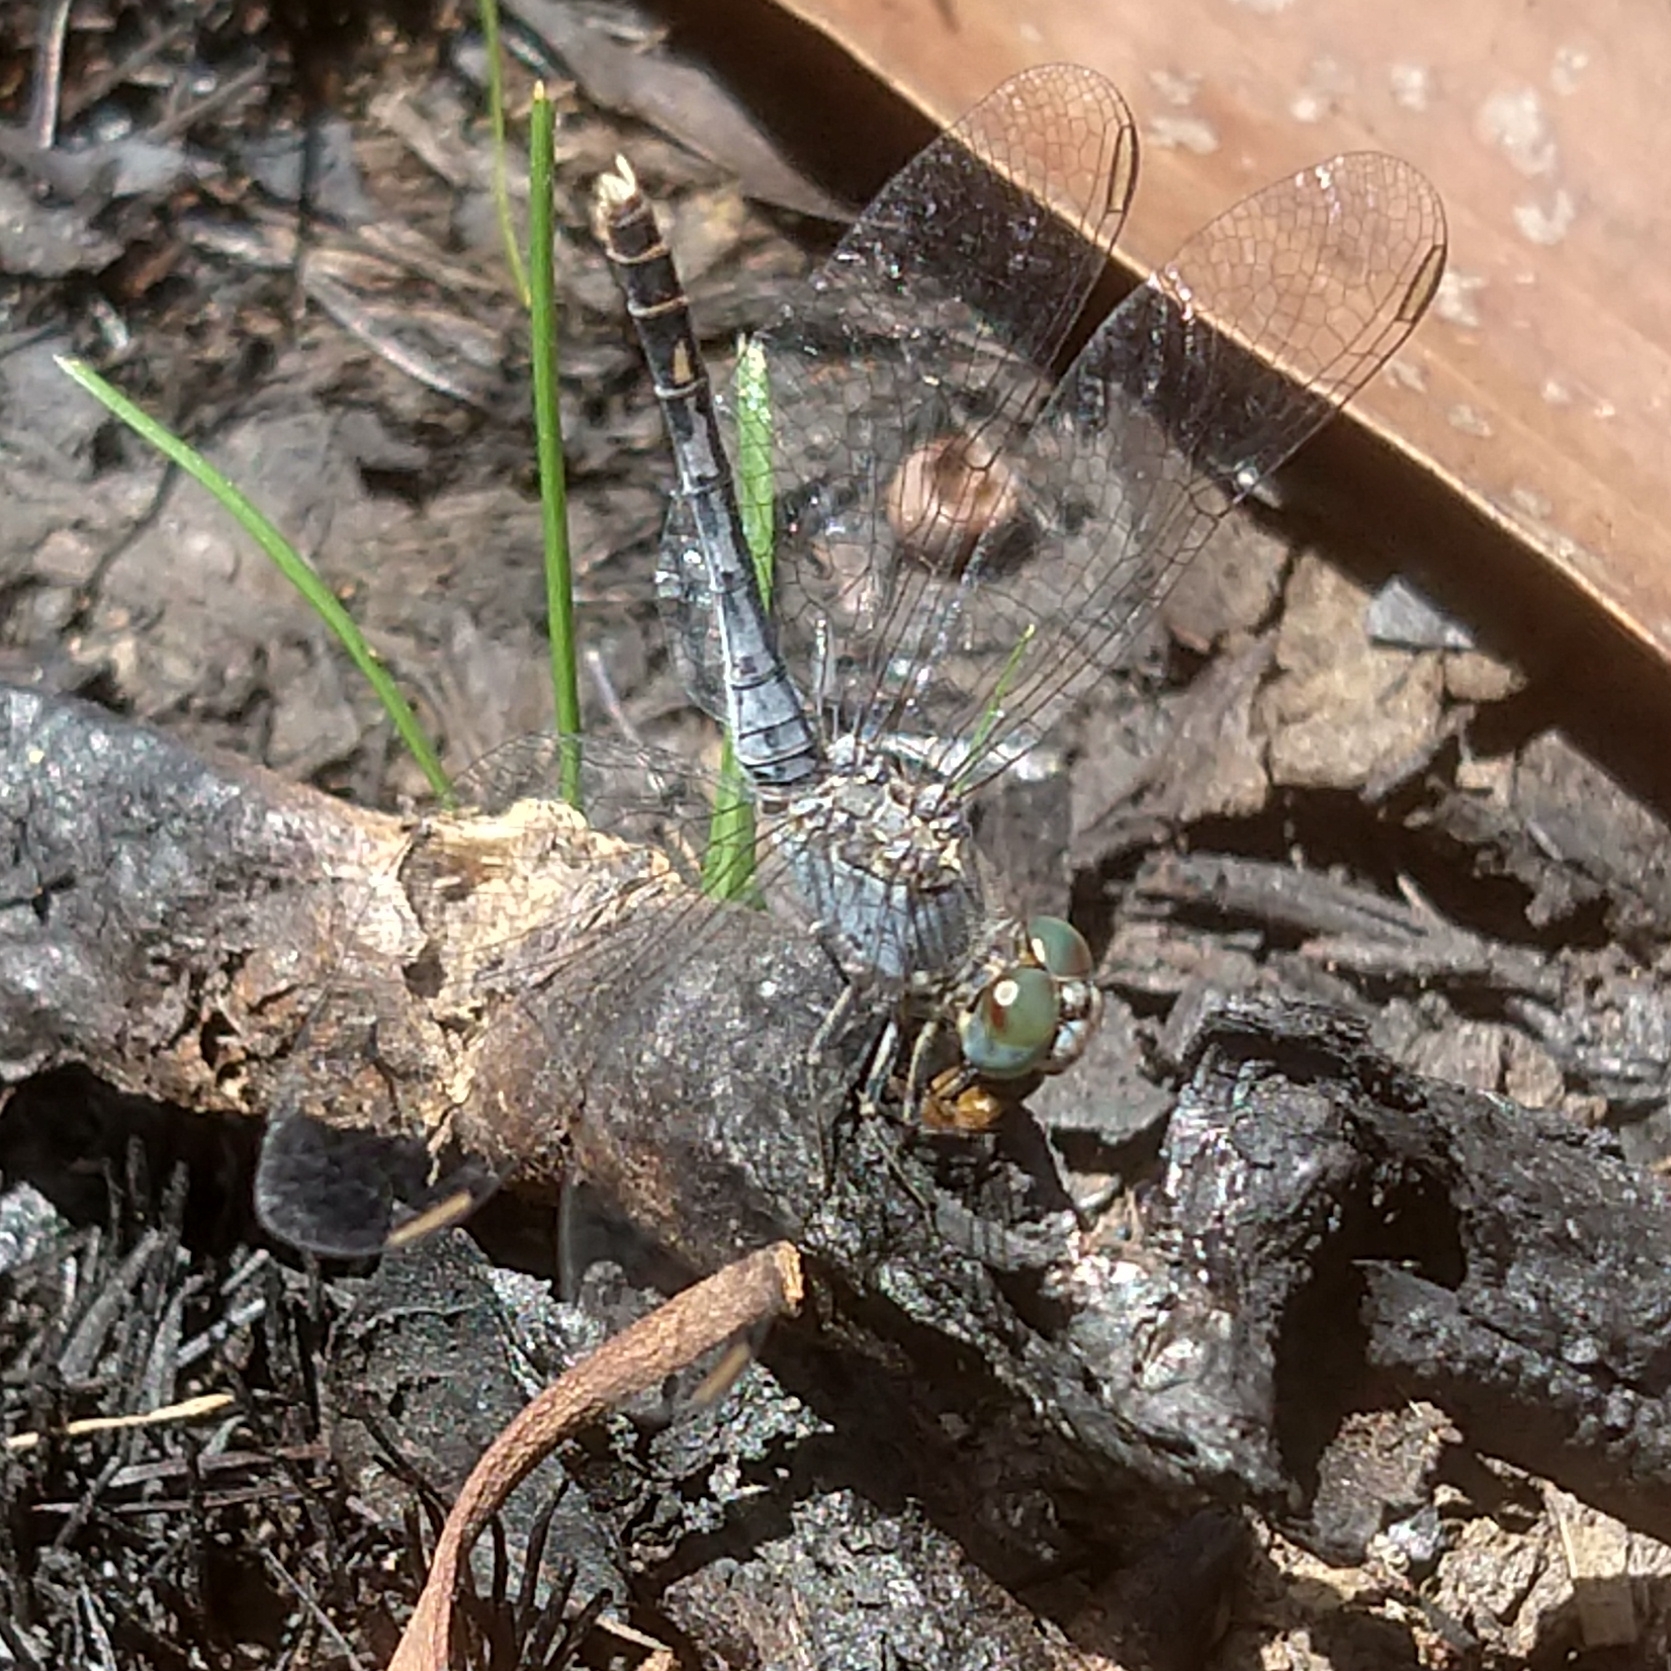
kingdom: Animalia
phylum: Arthropoda
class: Insecta
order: Odonata
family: Libellulidae
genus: Diplacodes
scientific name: Diplacodes trivialis
